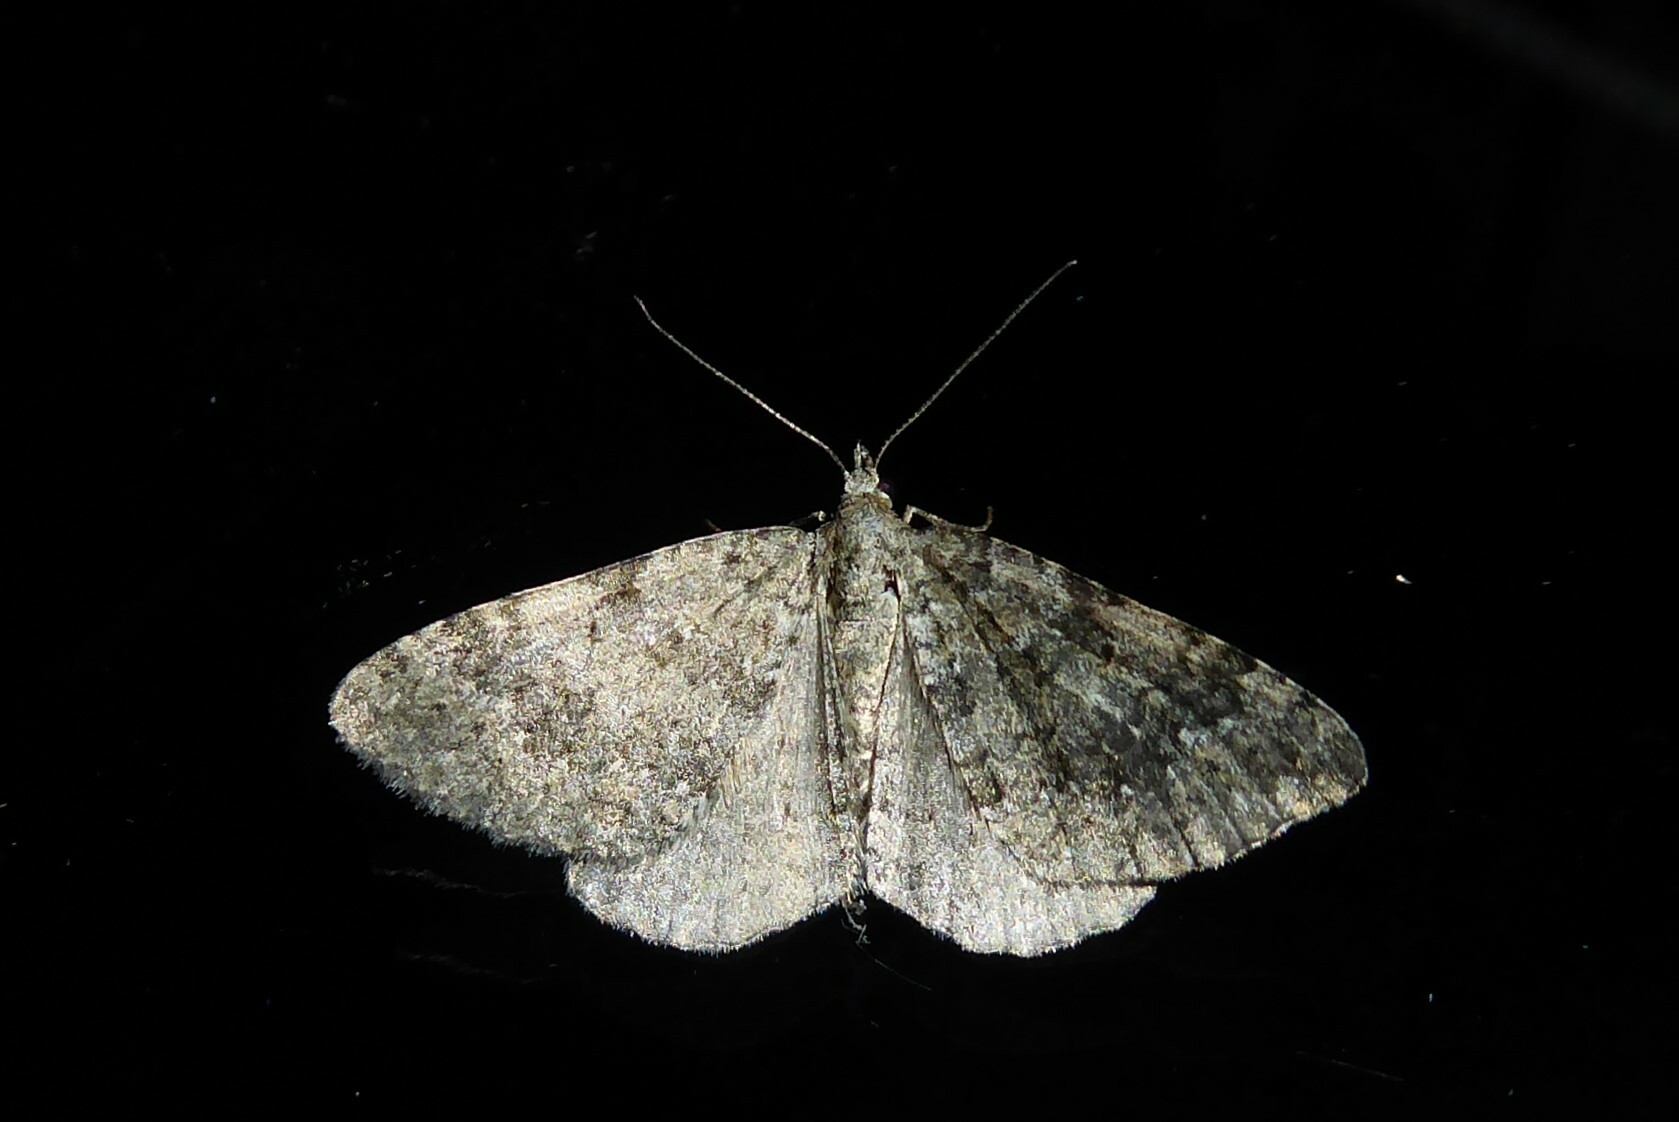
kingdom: Animalia
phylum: Arthropoda
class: Insecta
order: Lepidoptera
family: Geometridae
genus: Helastia
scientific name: Helastia corcularia
